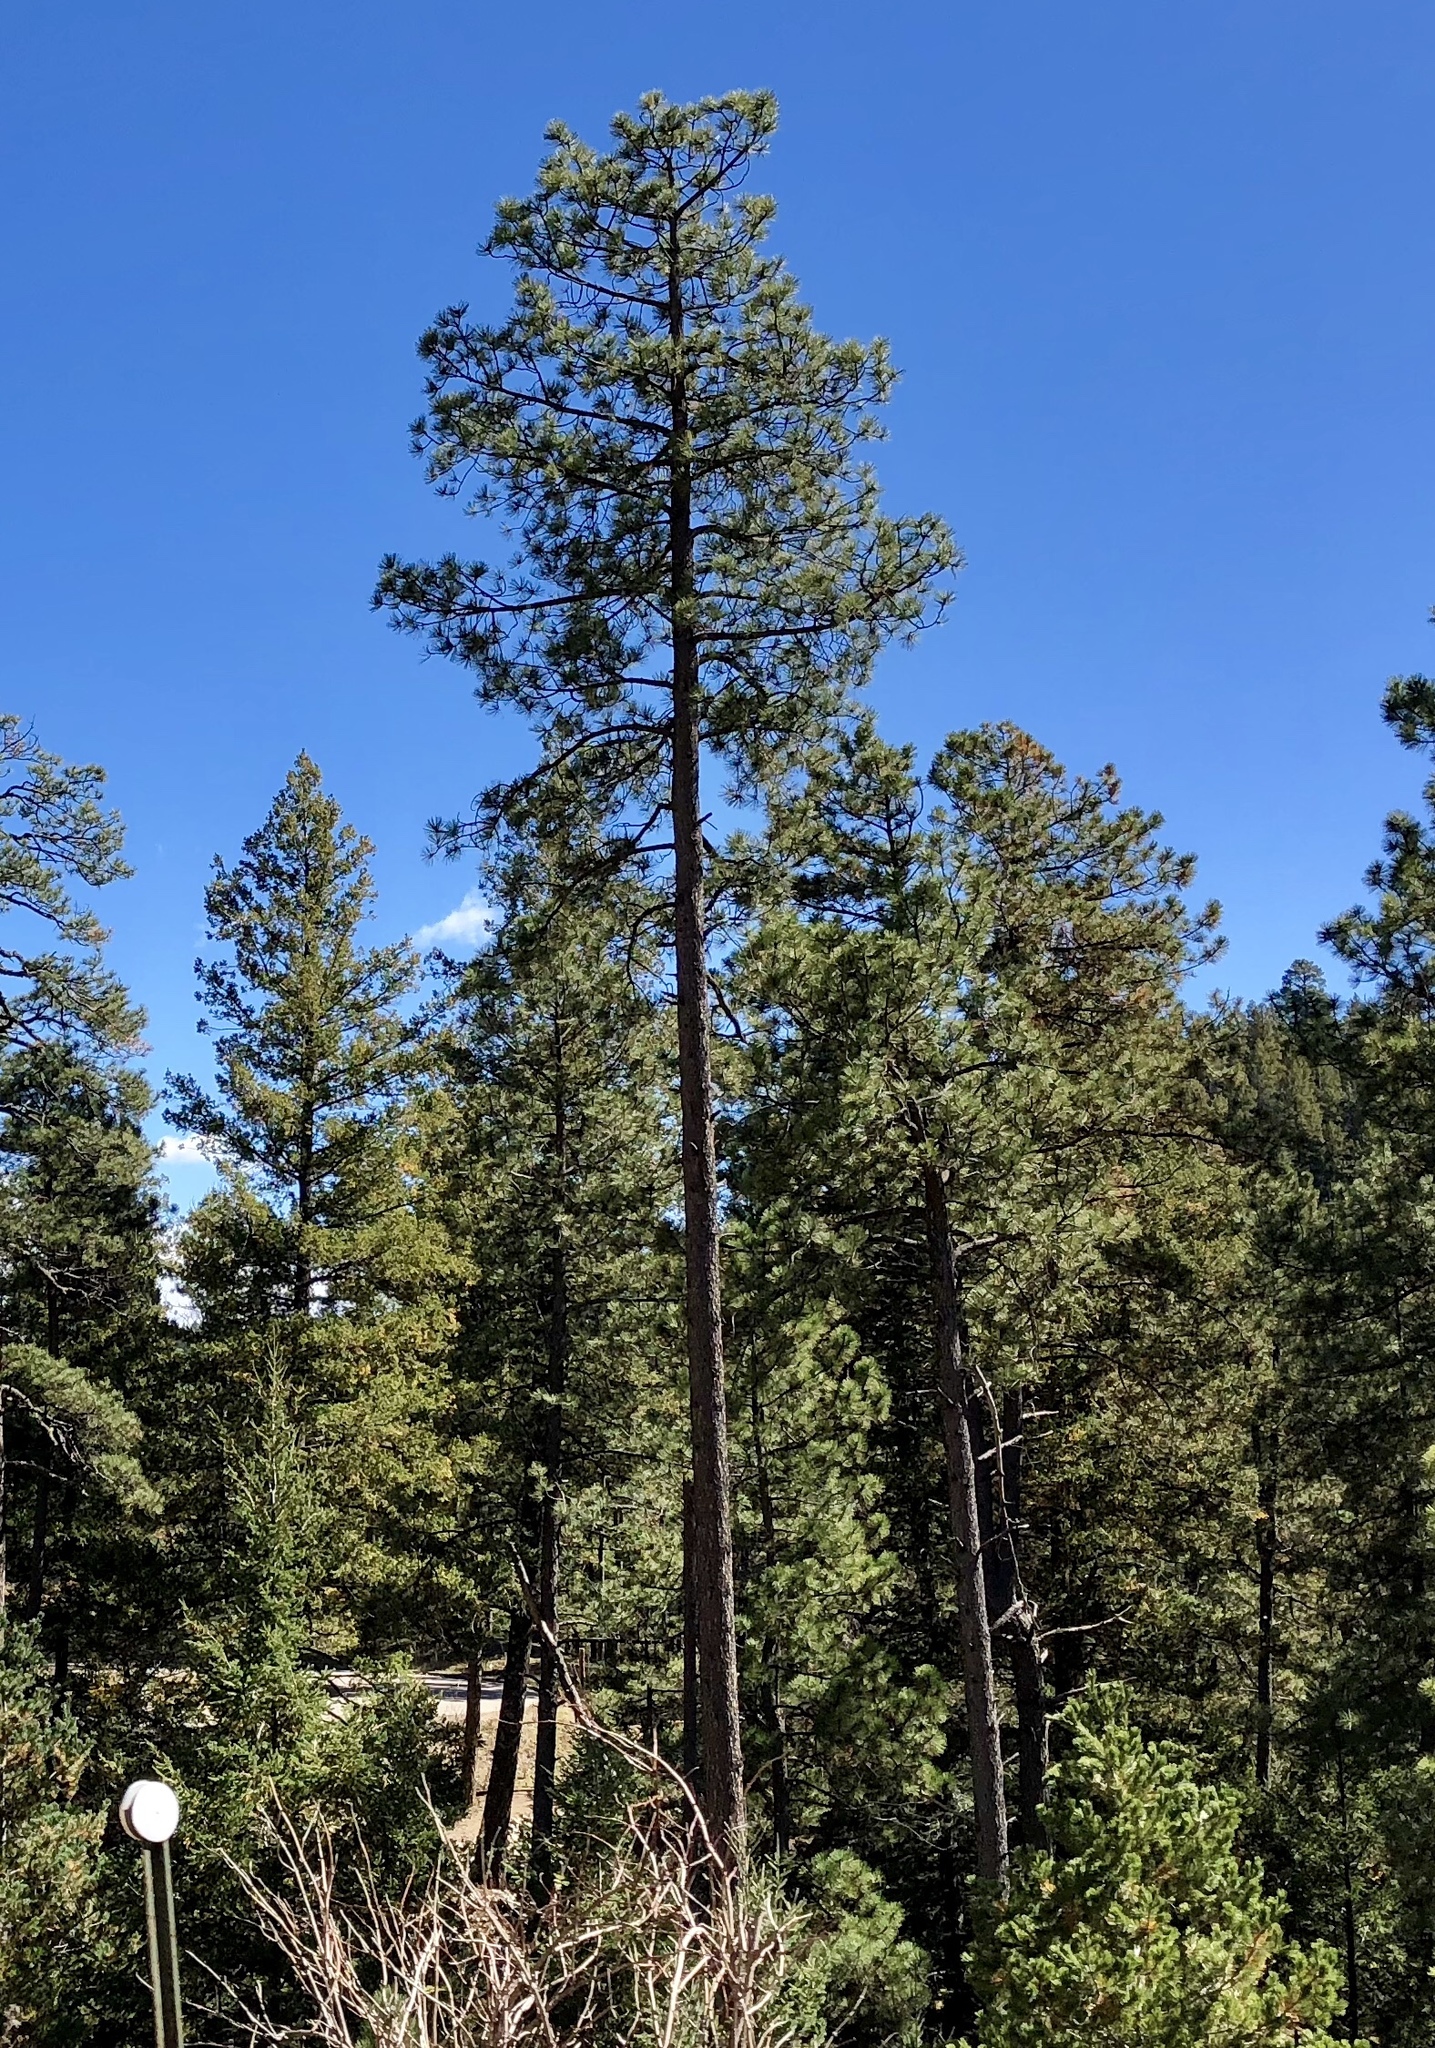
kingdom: Plantae
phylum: Tracheophyta
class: Pinopsida
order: Pinales
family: Pinaceae
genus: Pinus
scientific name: Pinus ponderosa
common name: Western yellow-pine
